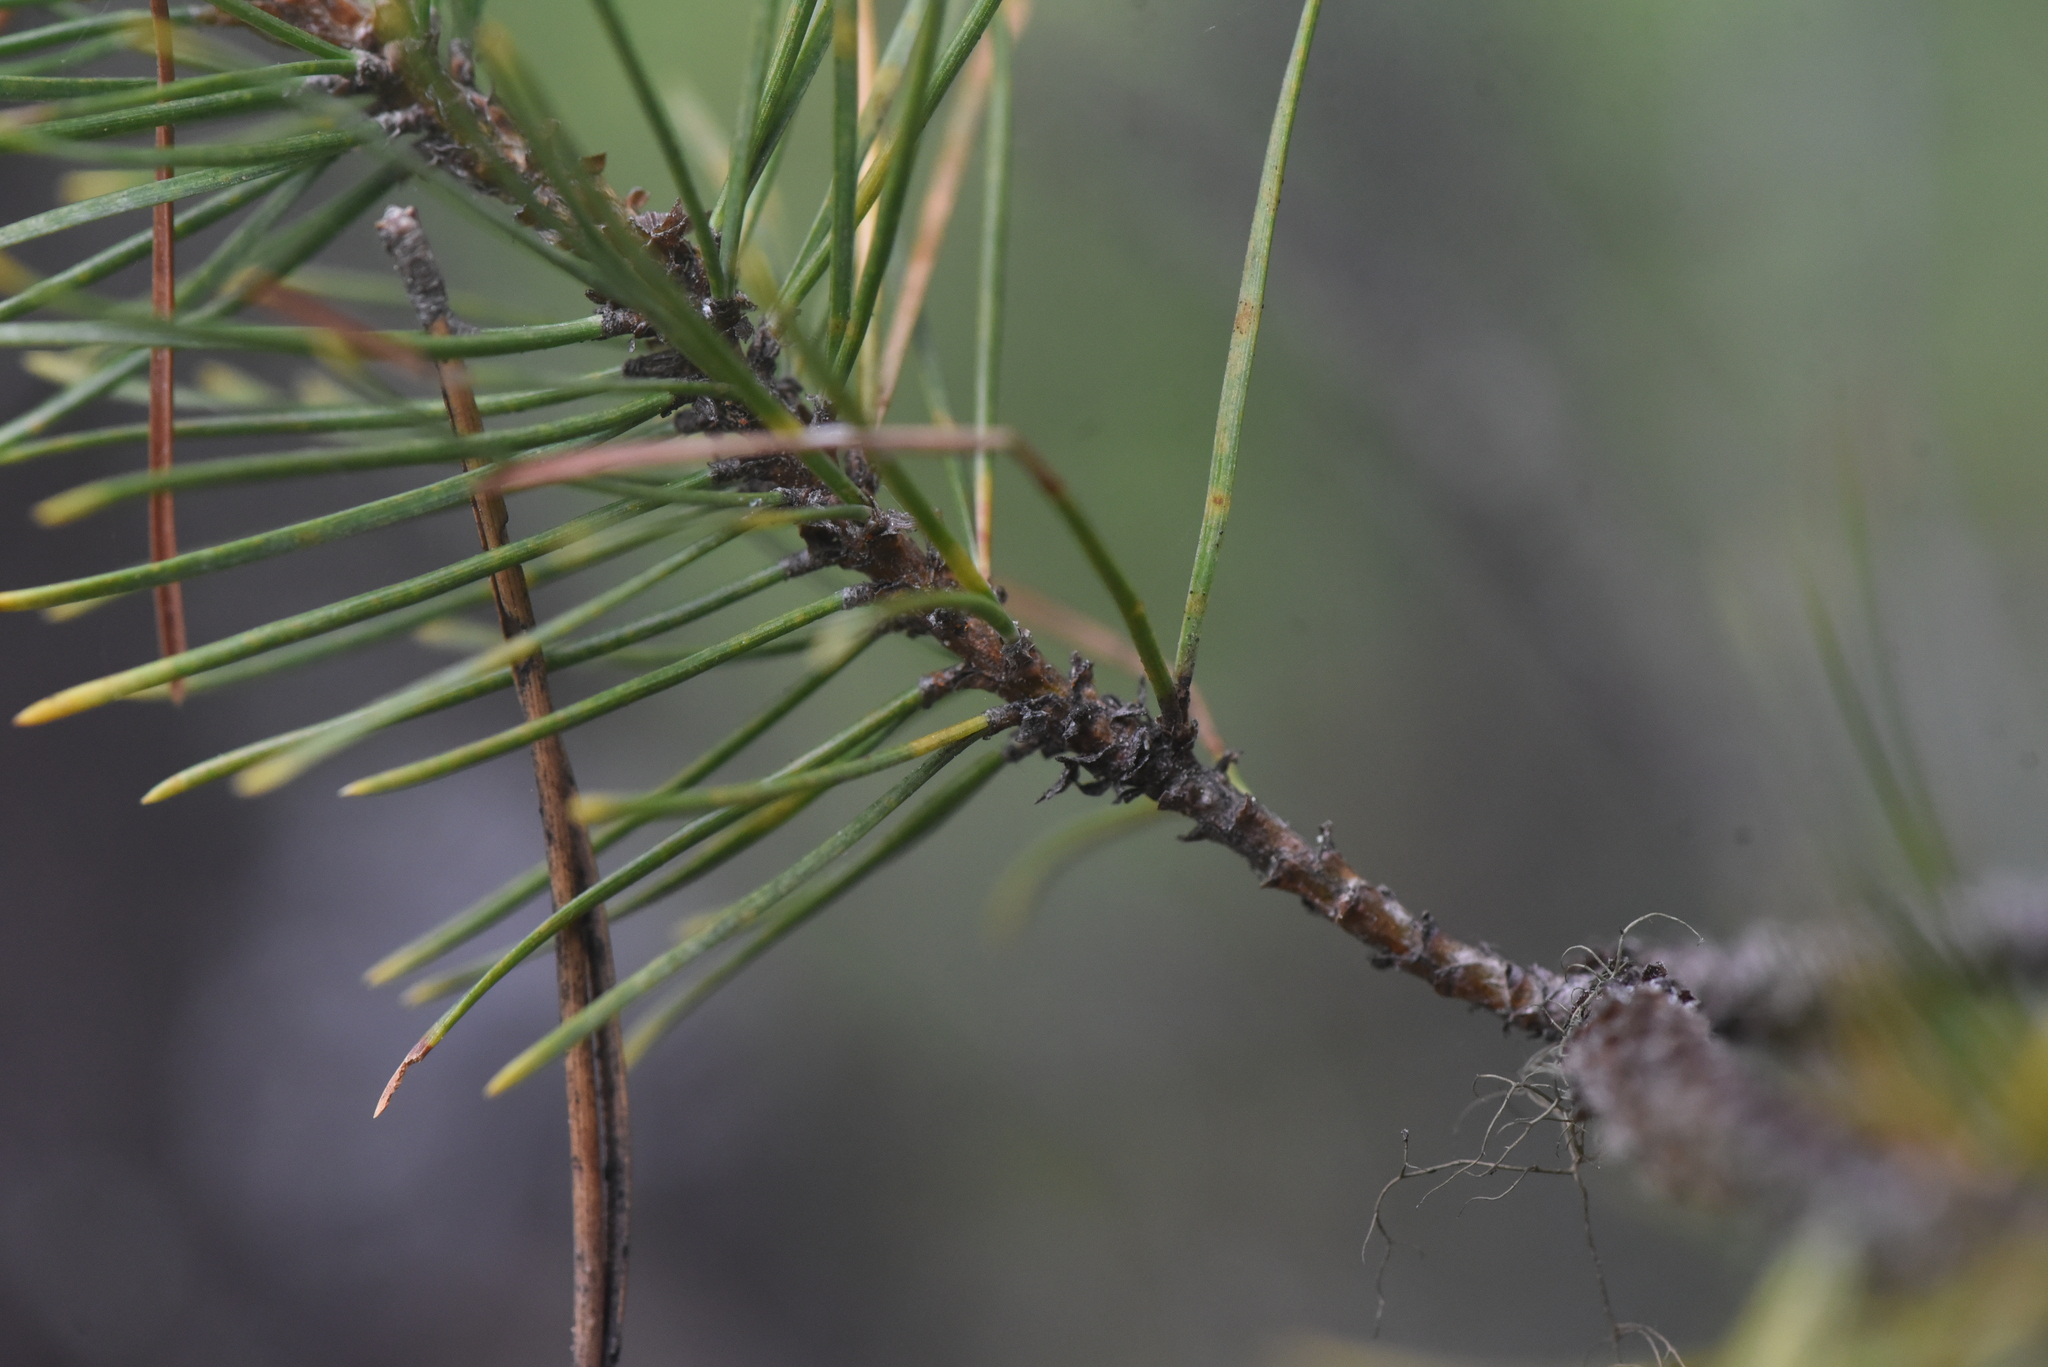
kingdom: Plantae
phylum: Tracheophyta
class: Pinopsida
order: Pinales
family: Pinaceae
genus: Pinus
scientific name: Pinus contorta
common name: Lodgepole pine
